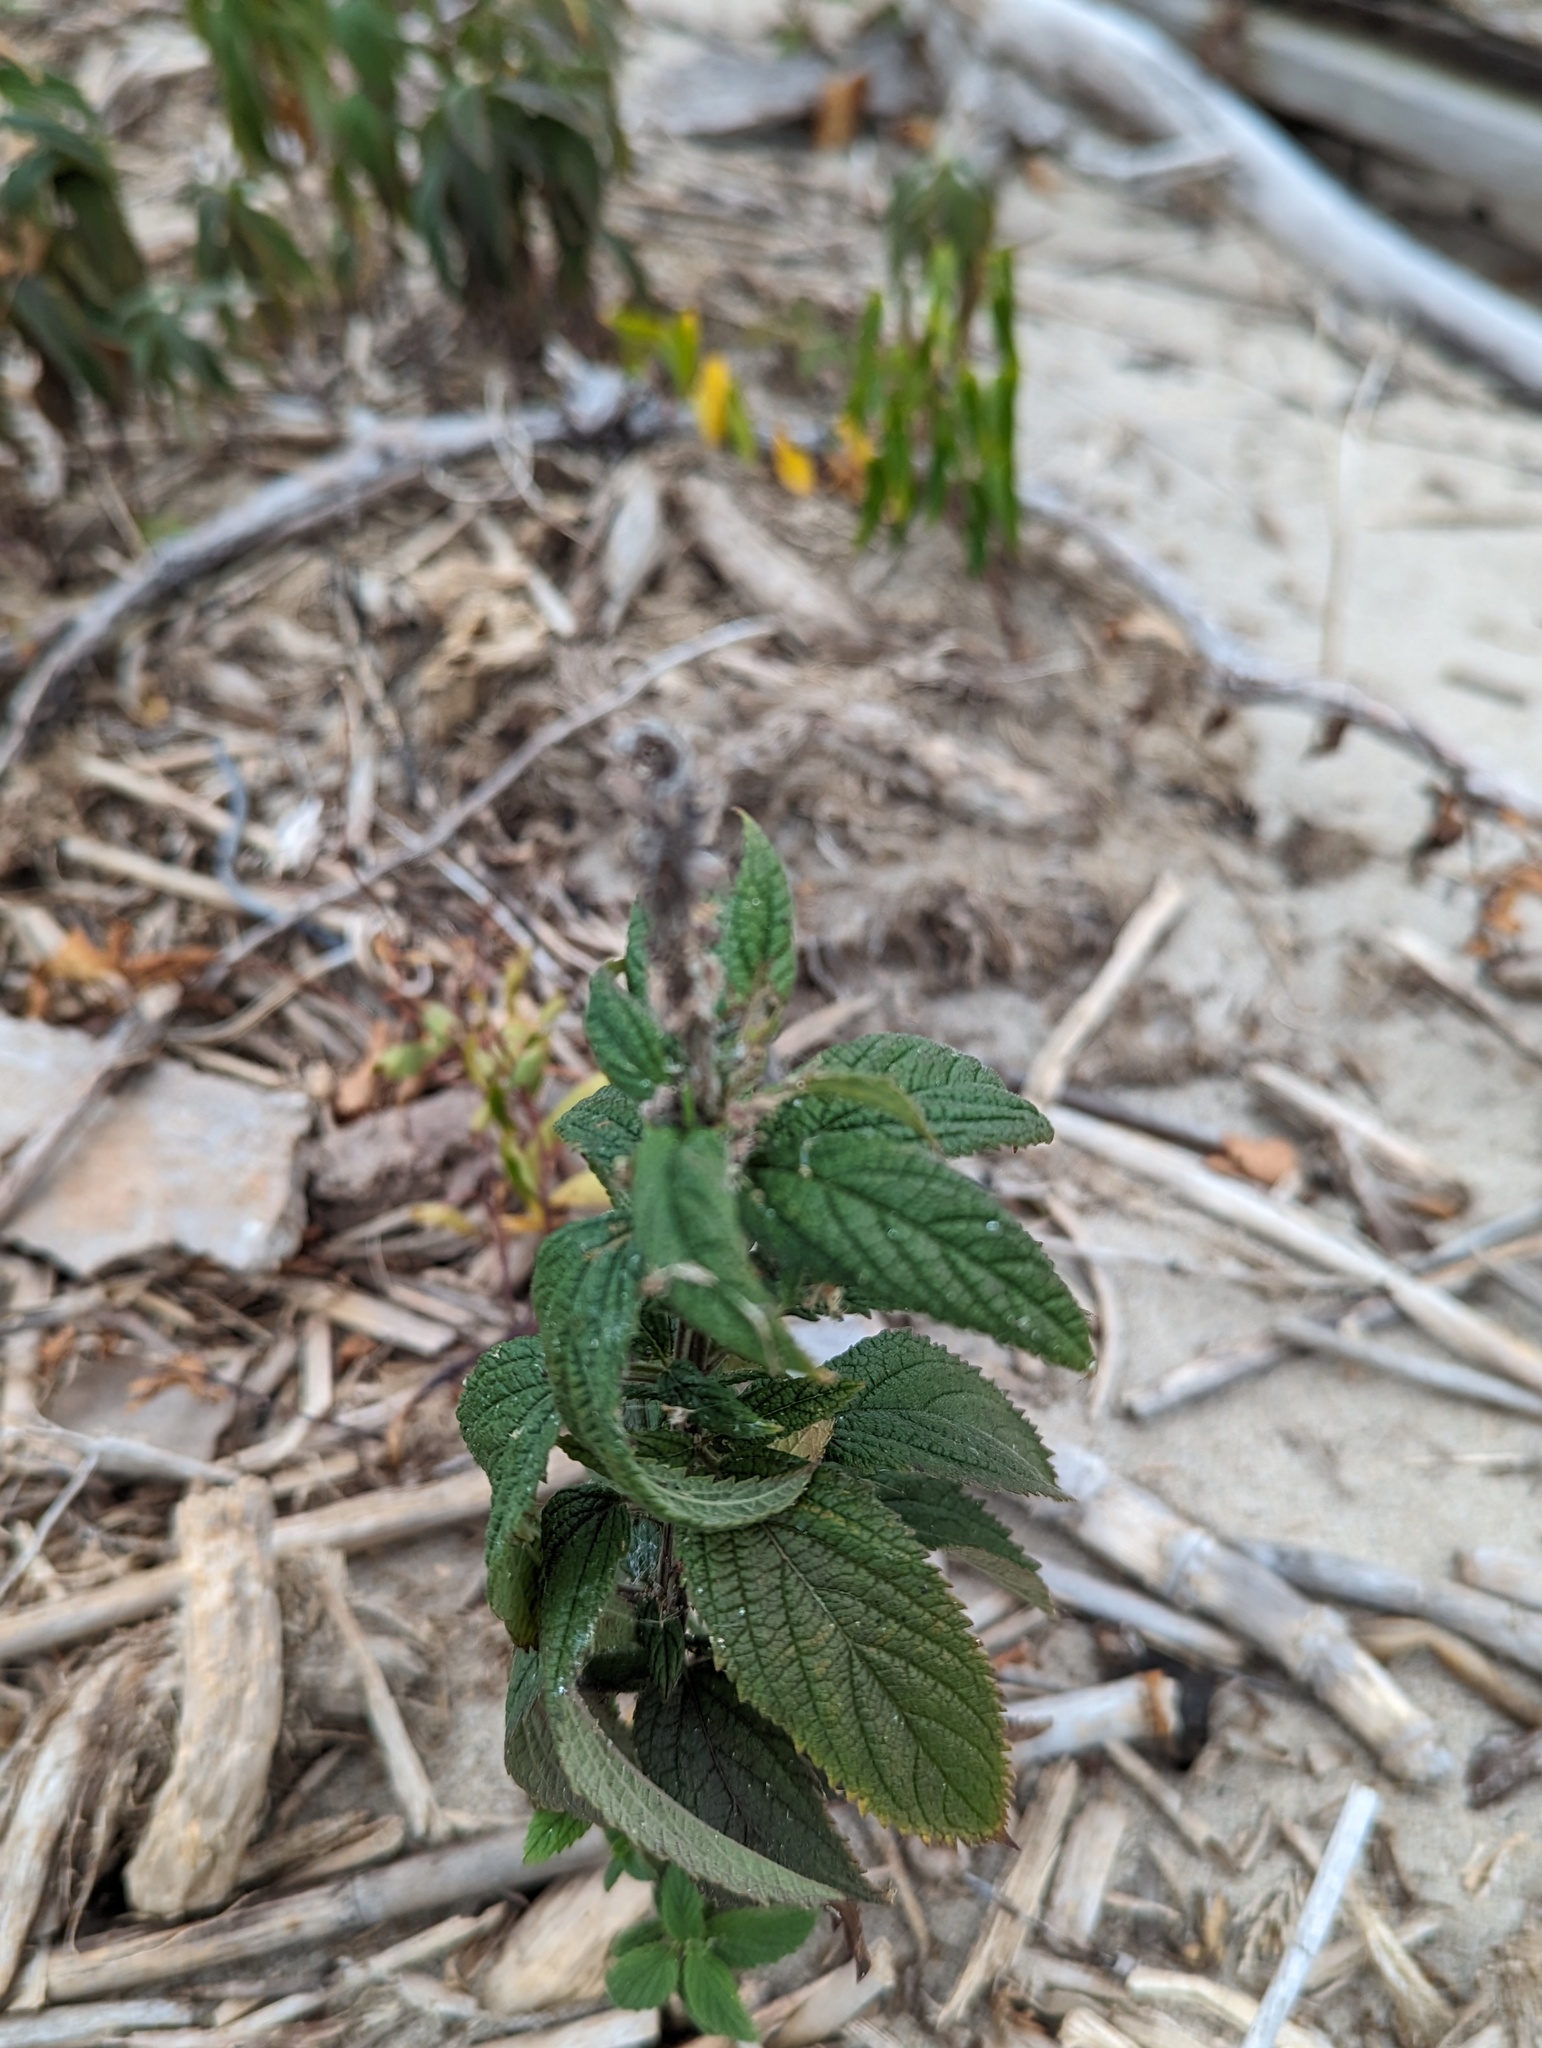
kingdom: Plantae
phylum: Tracheophyta
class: Magnoliopsida
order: Lamiales
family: Lamiaceae
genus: Teucrium
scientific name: Teucrium canadense
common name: American germander
